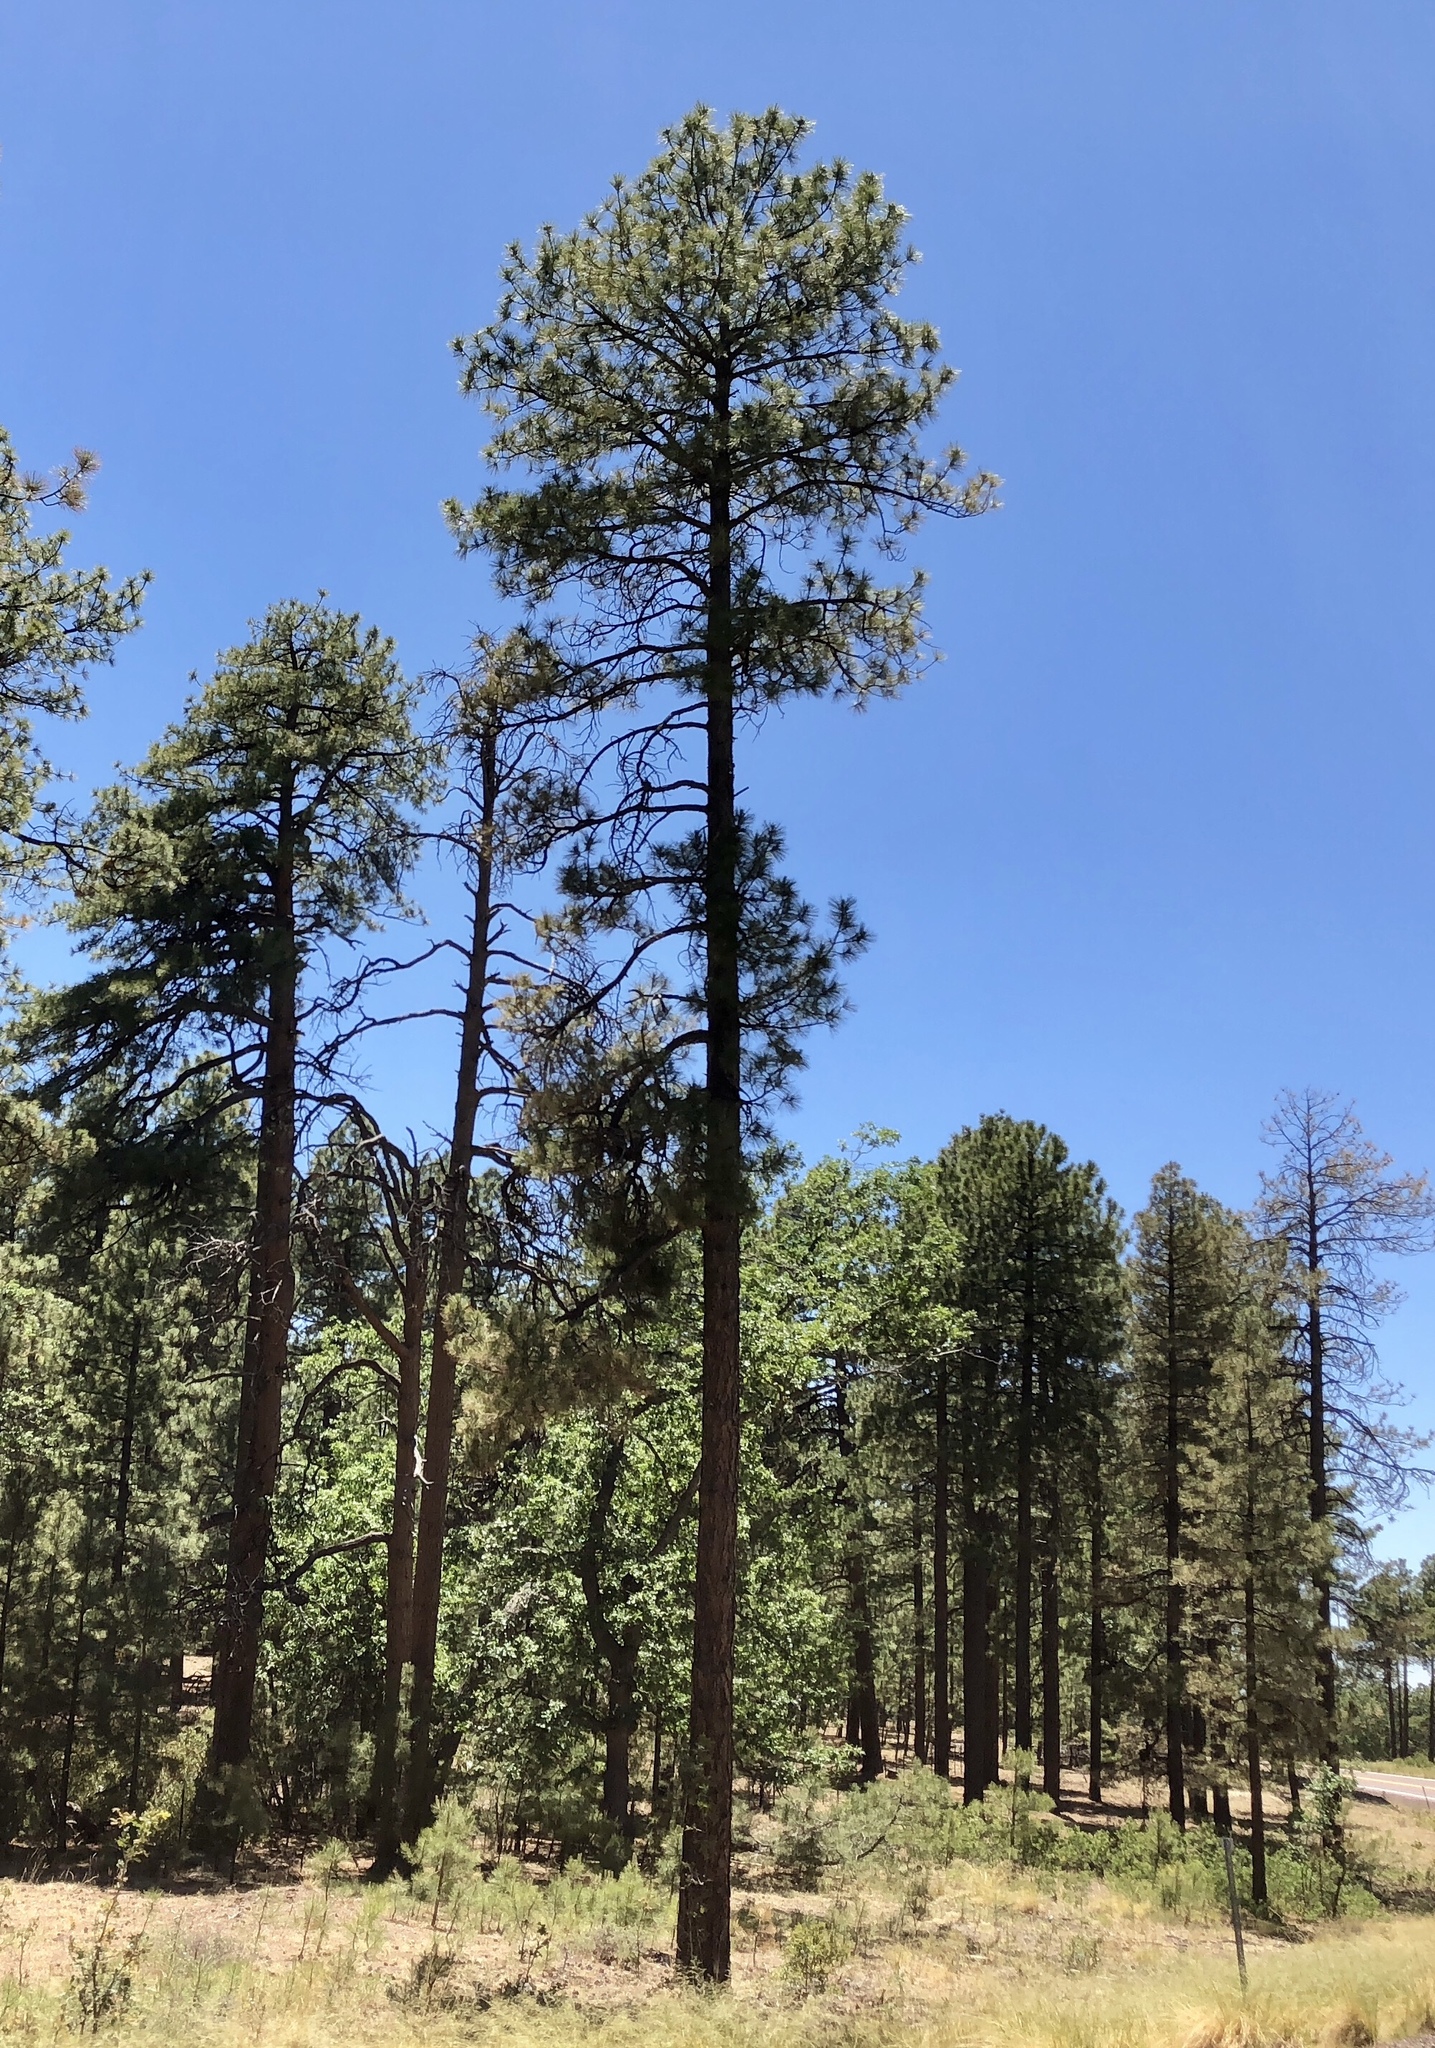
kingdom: Plantae
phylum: Tracheophyta
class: Pinopsida
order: Pinales
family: Pinaceae
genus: Pinus
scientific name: Pinus ponderosa
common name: Western yellow-pine
